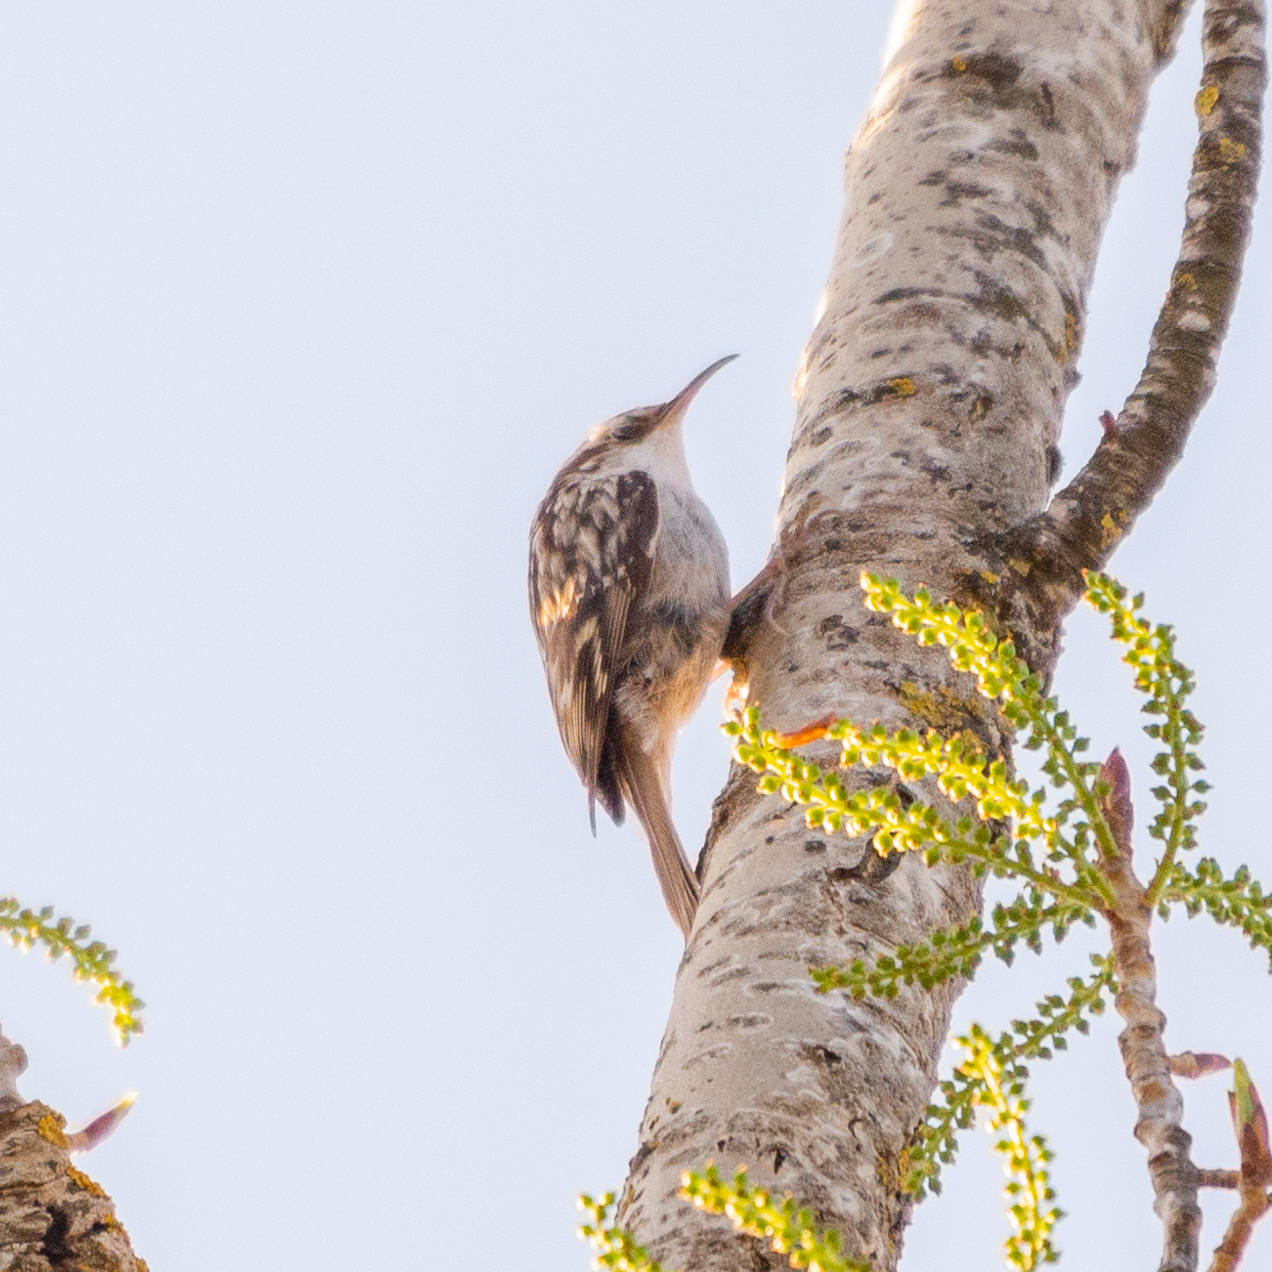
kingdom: Animalia
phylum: Chordata
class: Aves
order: Passeriformes
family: Certhiidae
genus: Certhia
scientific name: Certhia brachydactyla
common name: Short-toed treecreeper
